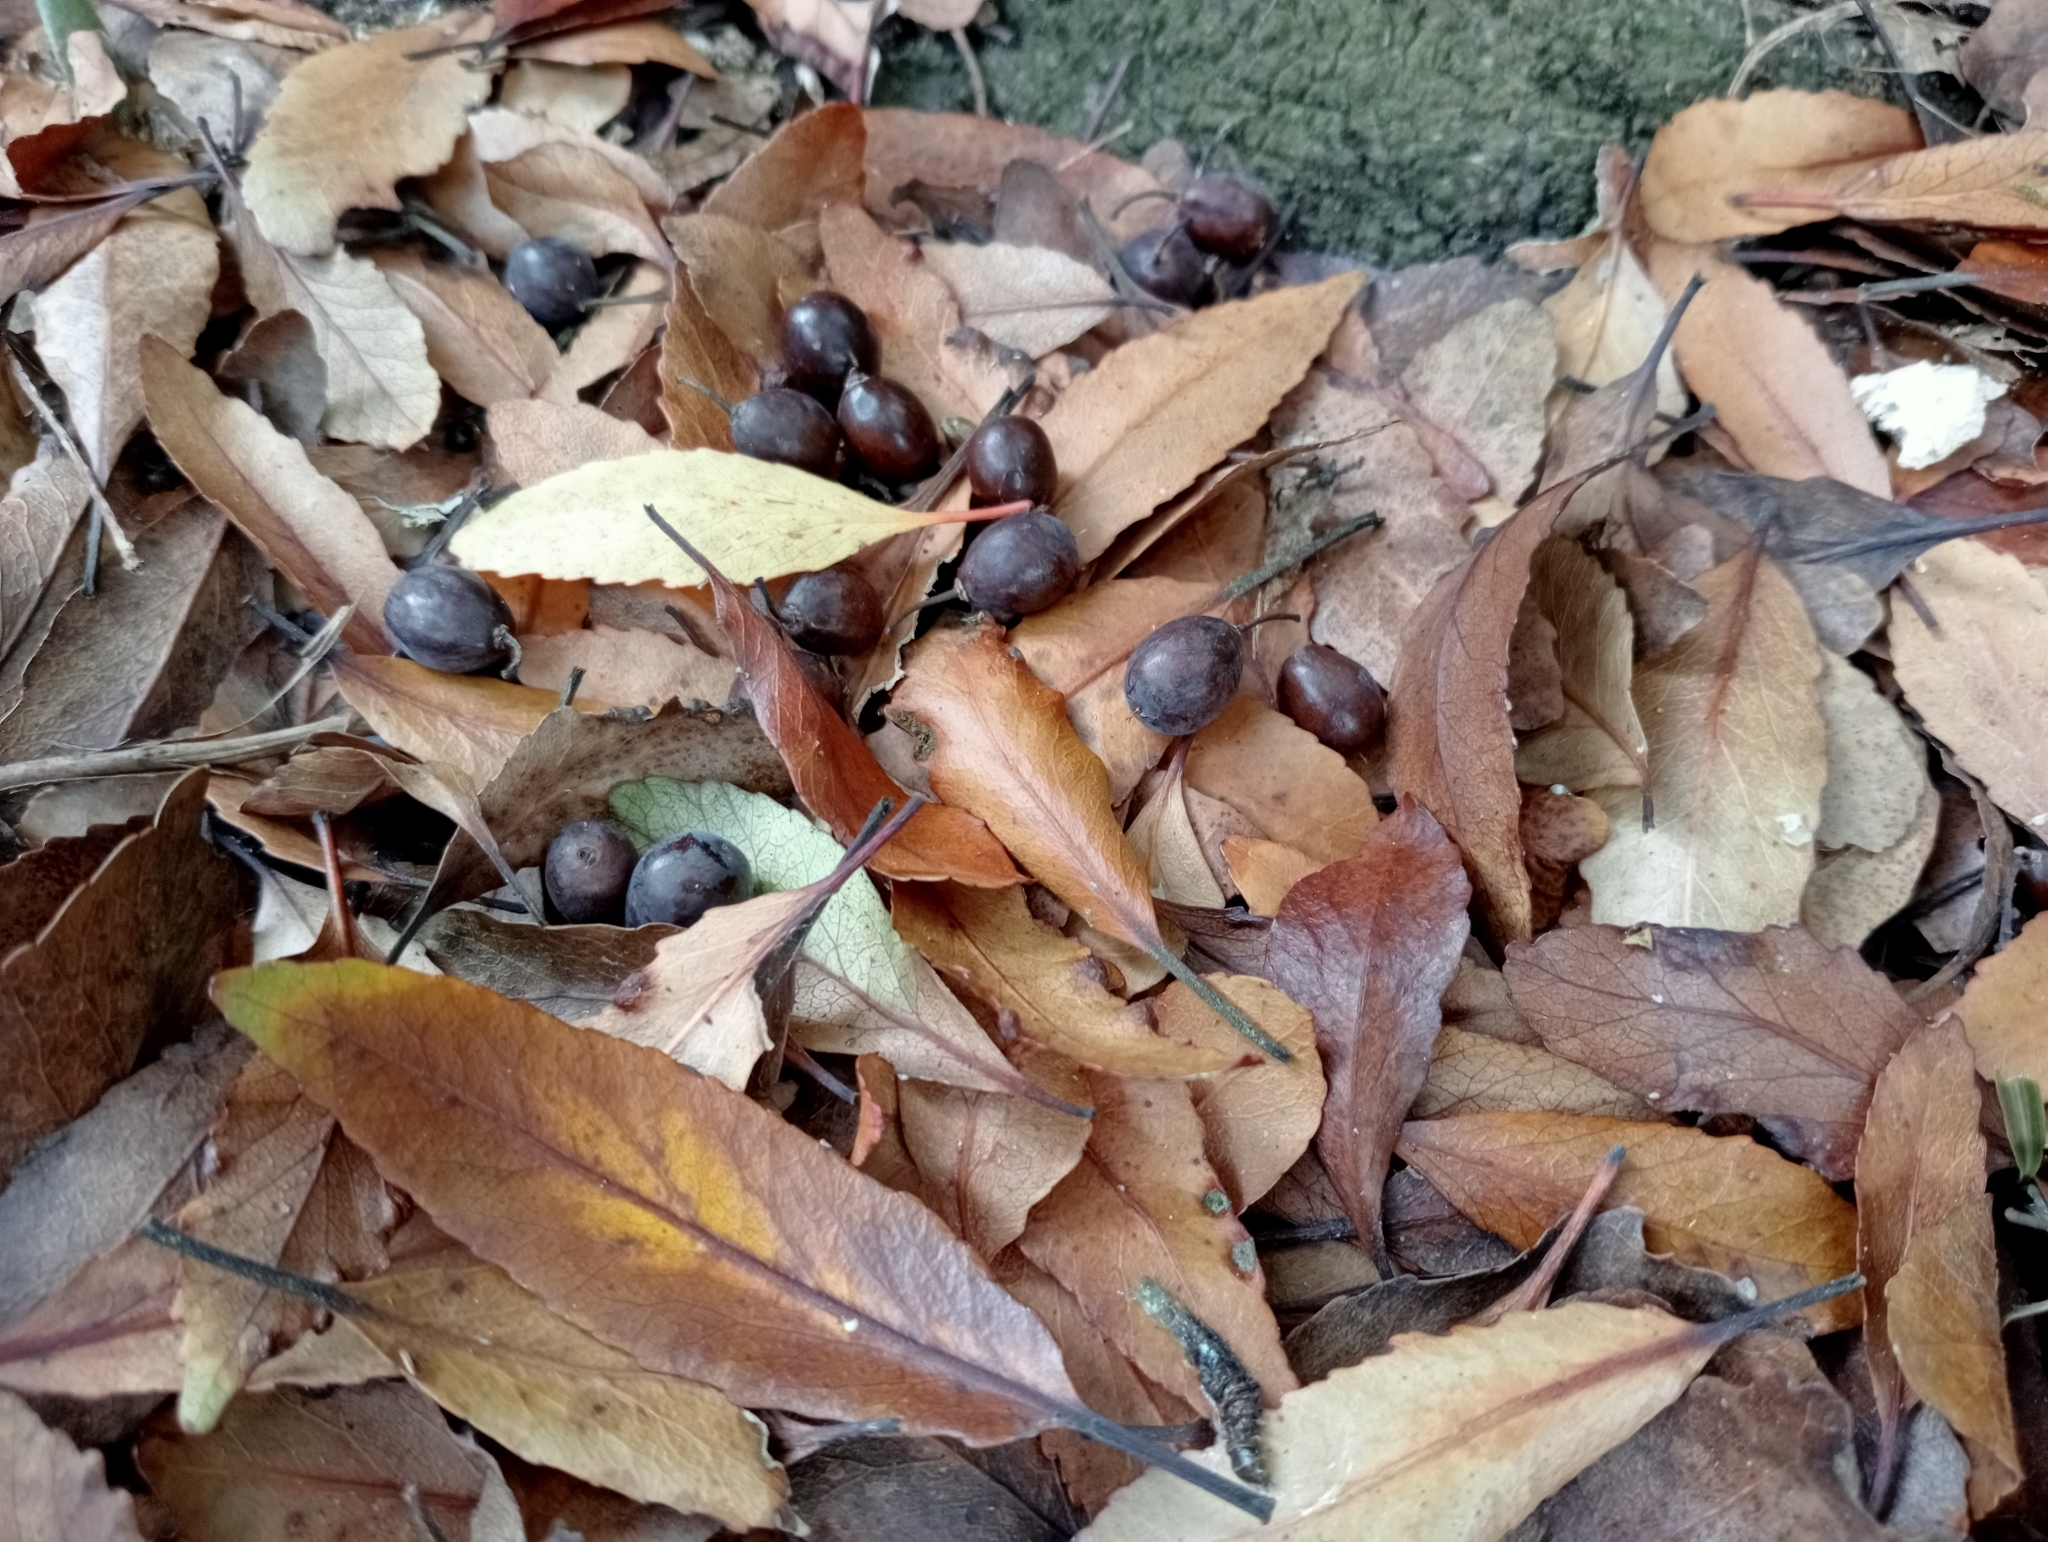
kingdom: Plantae
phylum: Tracheophyta
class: Magnoliopsida
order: Oxalidales
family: Elaeocarpaceae
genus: Elaeocarpus
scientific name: Elaeocarpus hookerianus
